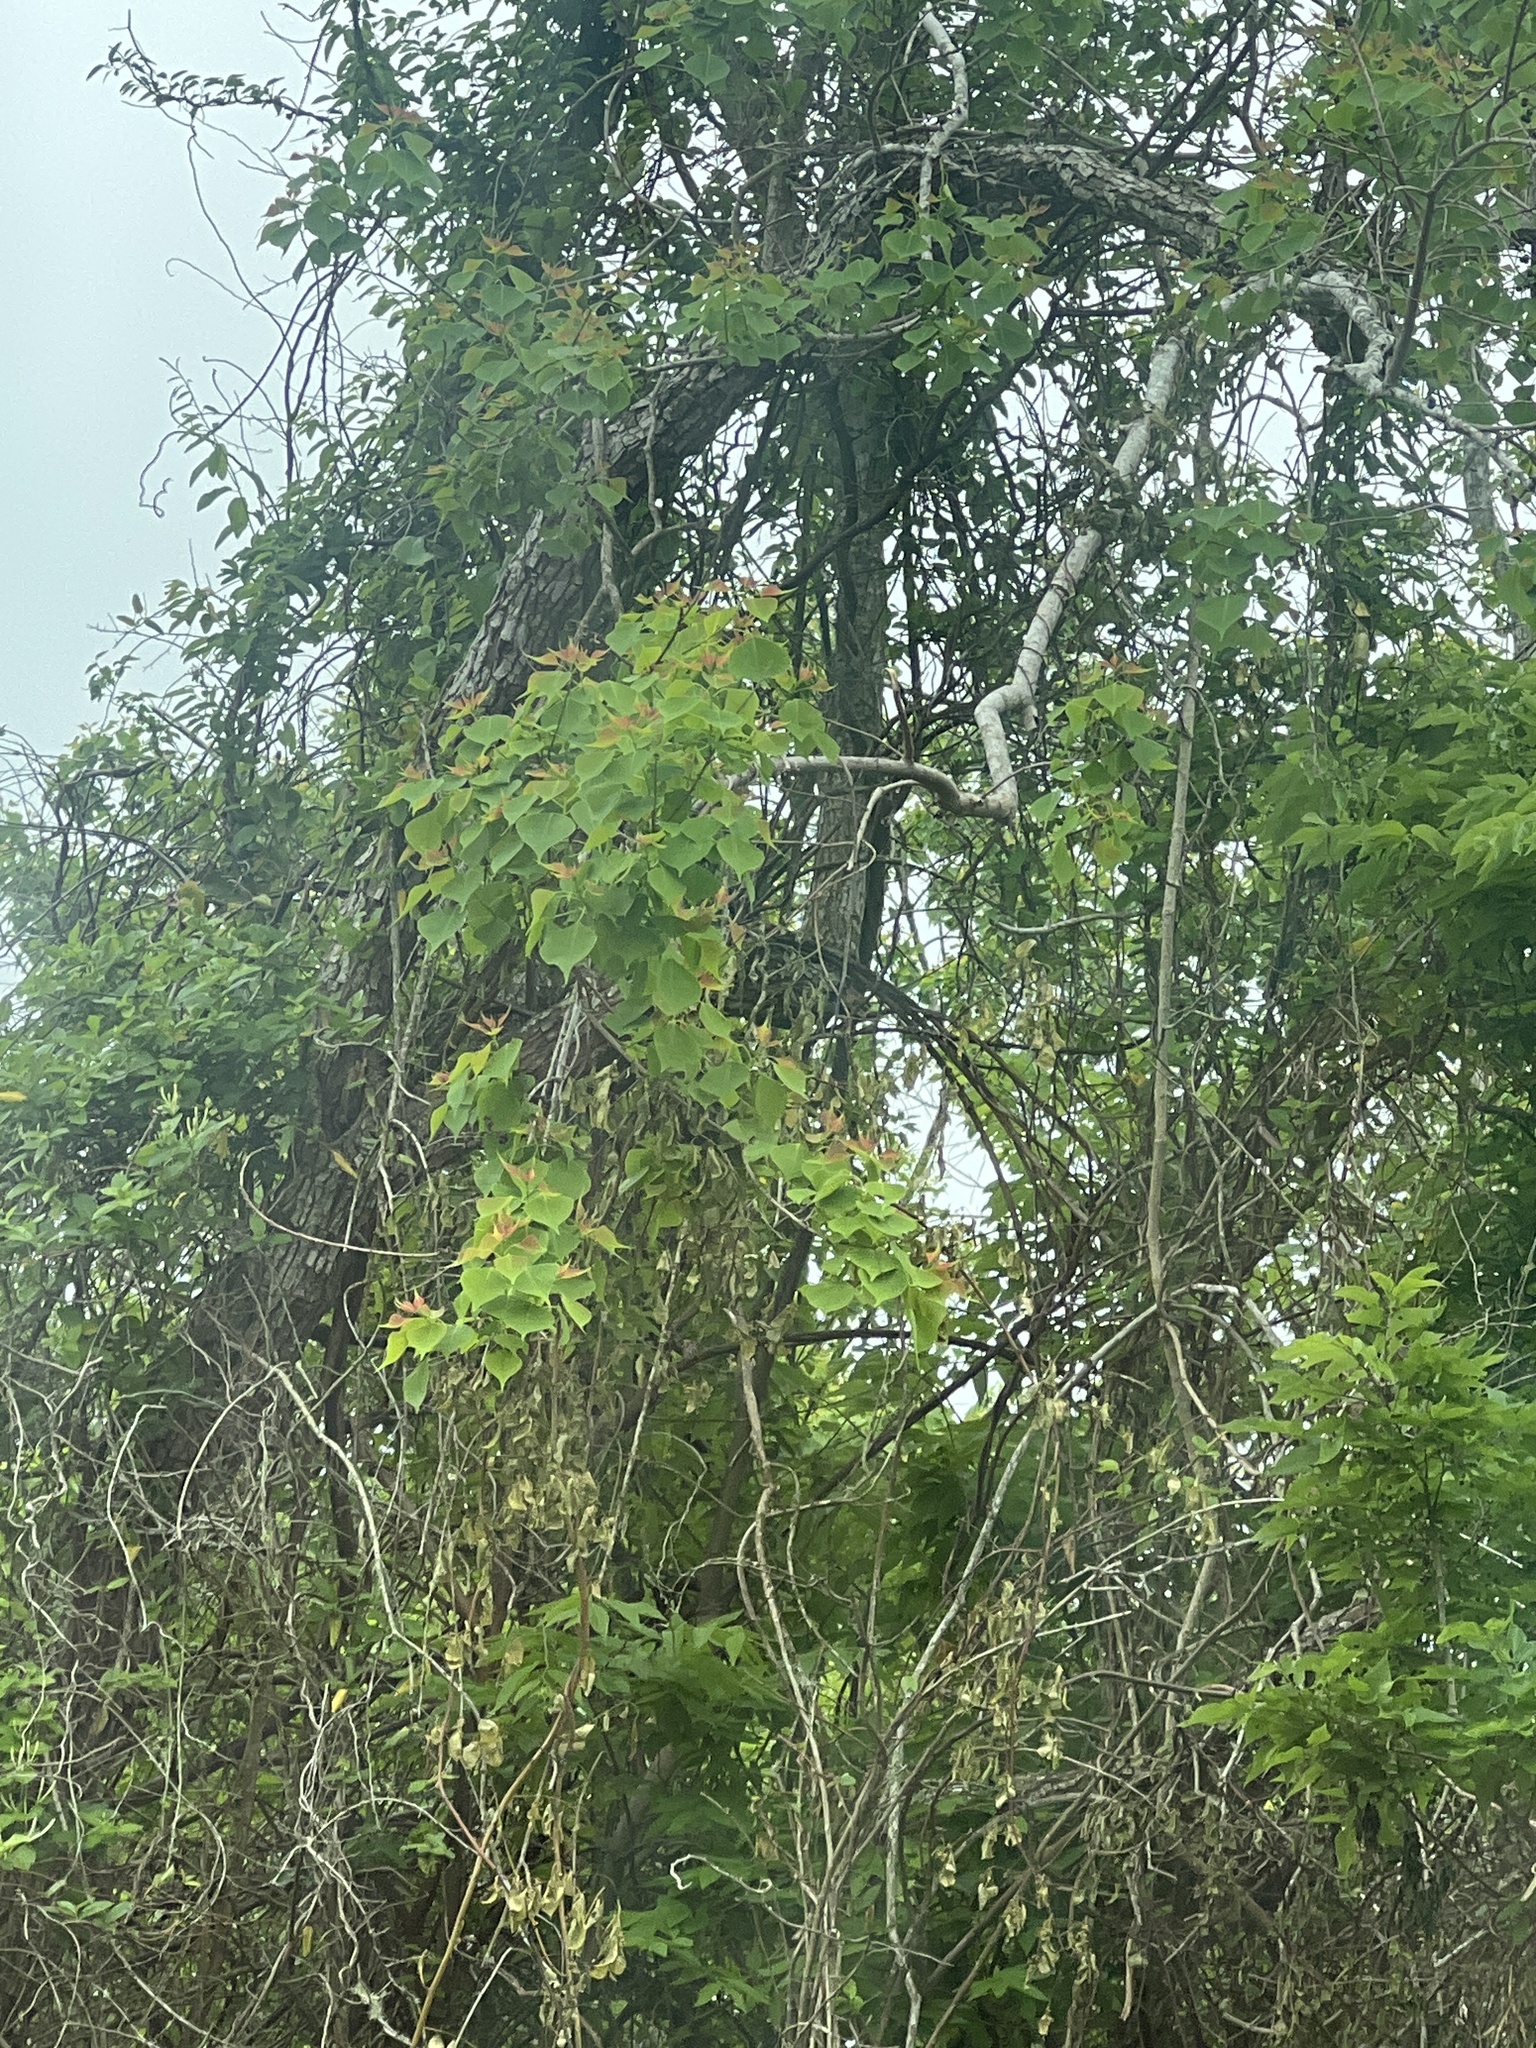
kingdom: Plantae
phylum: Tracheophyta
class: Magnoliopsida
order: Malpighiales
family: Euphorbiaceae
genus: Triadica
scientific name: Triadica sebifera
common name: Chinese tallow
